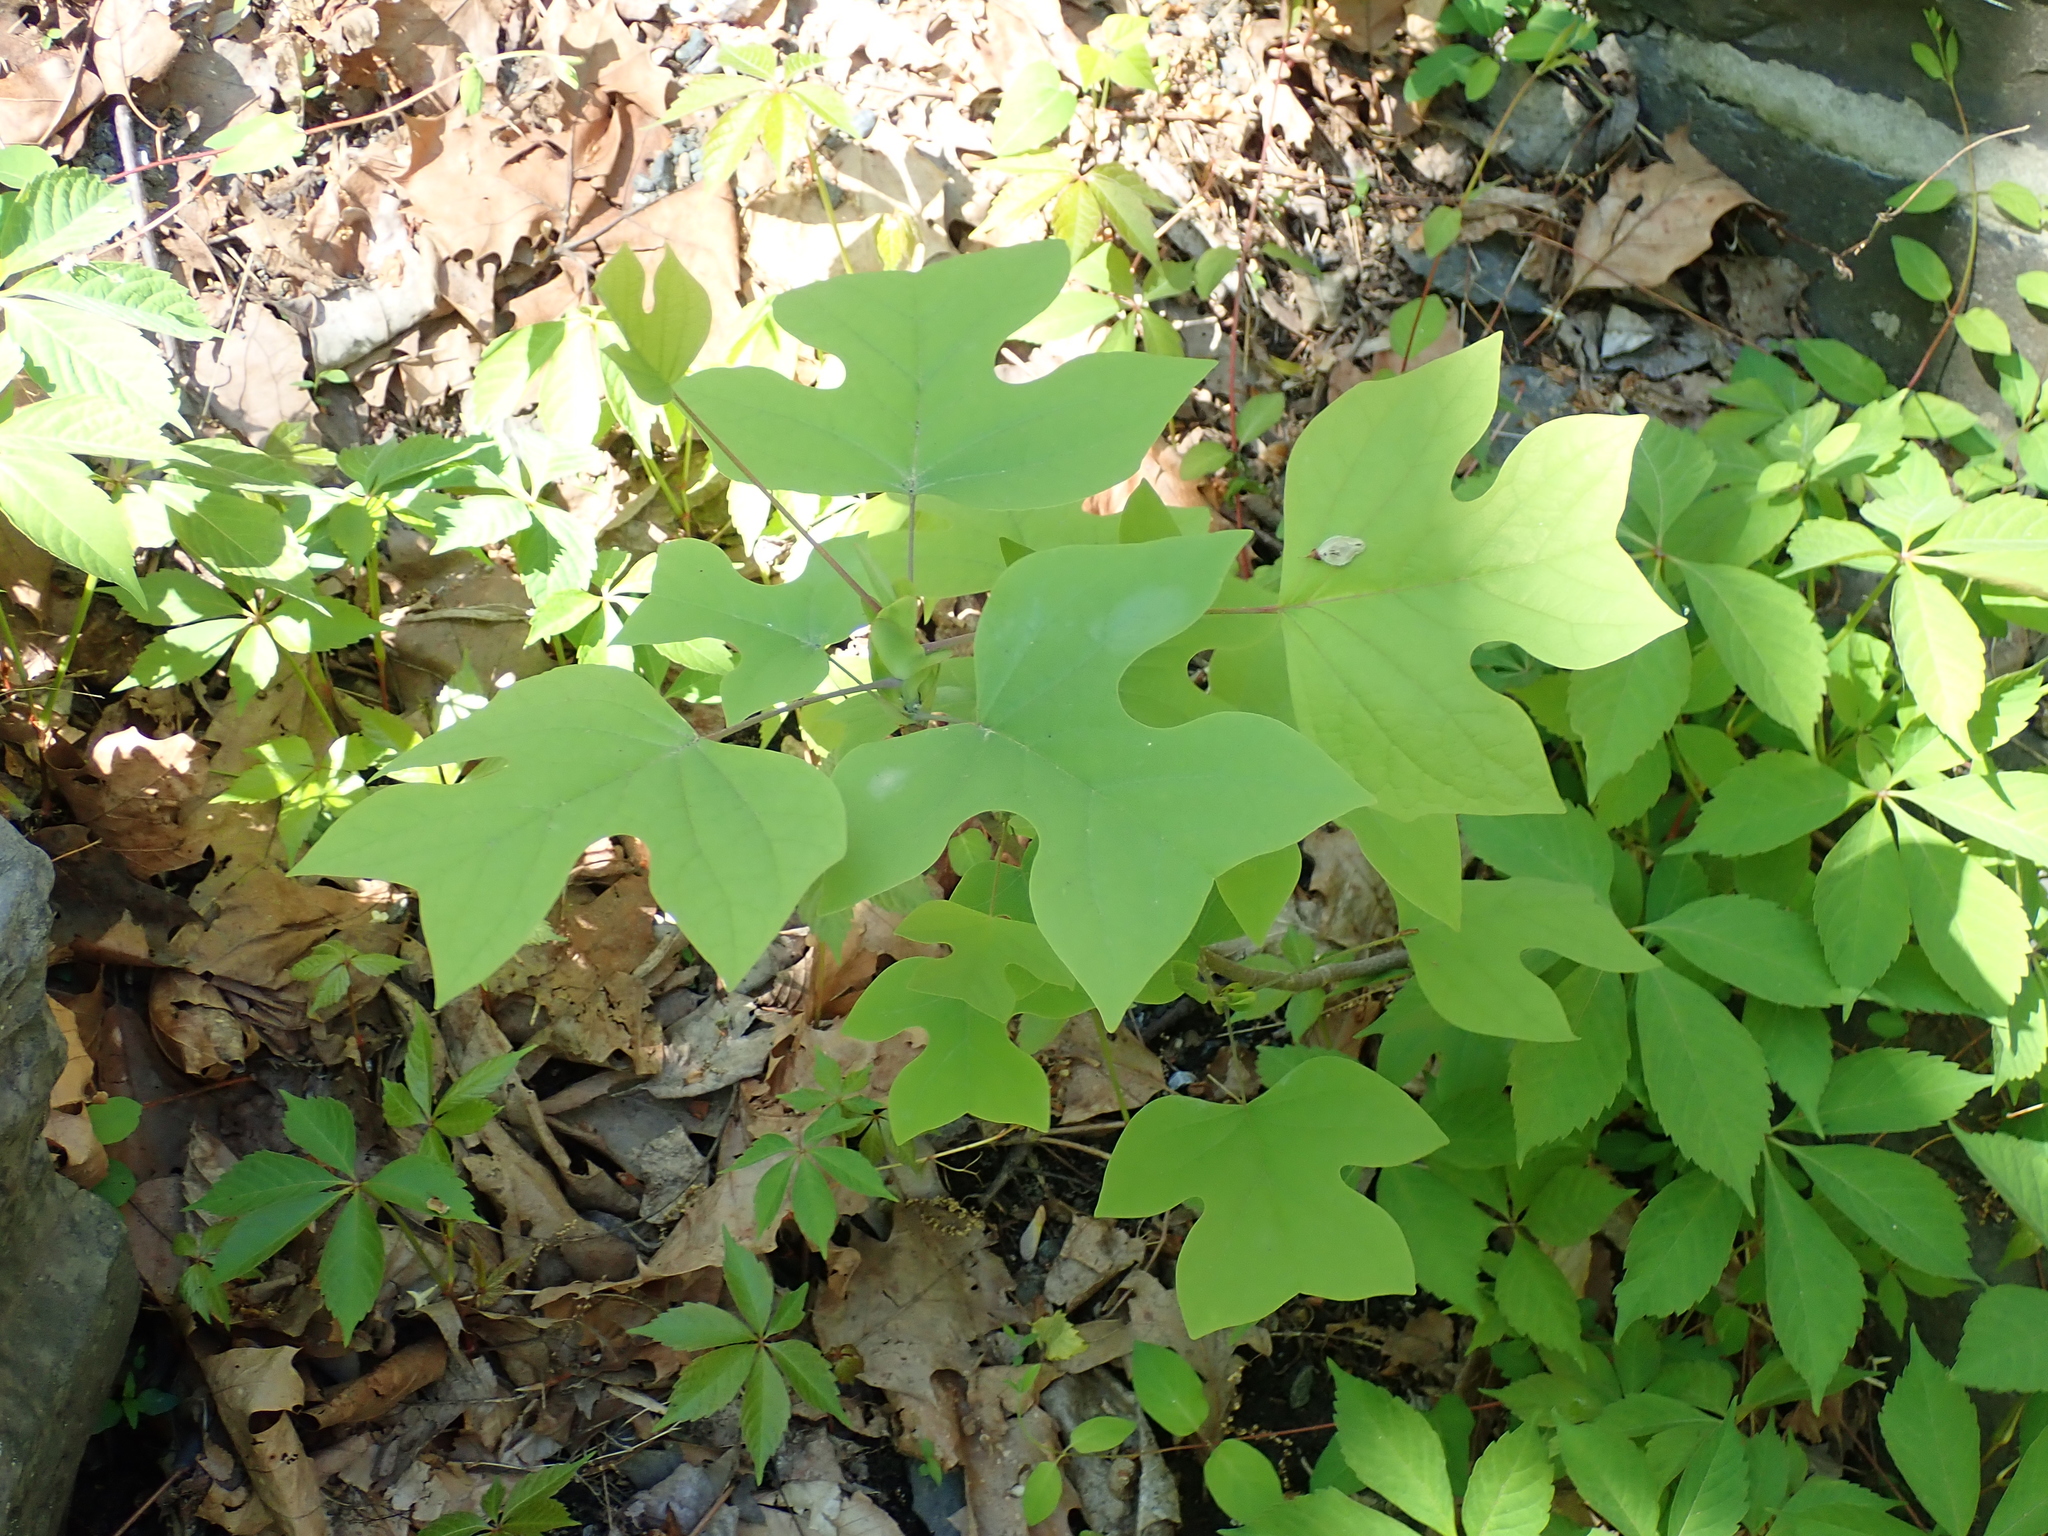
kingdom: Plantae
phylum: Tracheophyta
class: Magnoliopsida
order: Magnoliales
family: Magnoliaceae
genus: Liriodendron
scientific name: Liriodendron tulipifera
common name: Tulip tree
